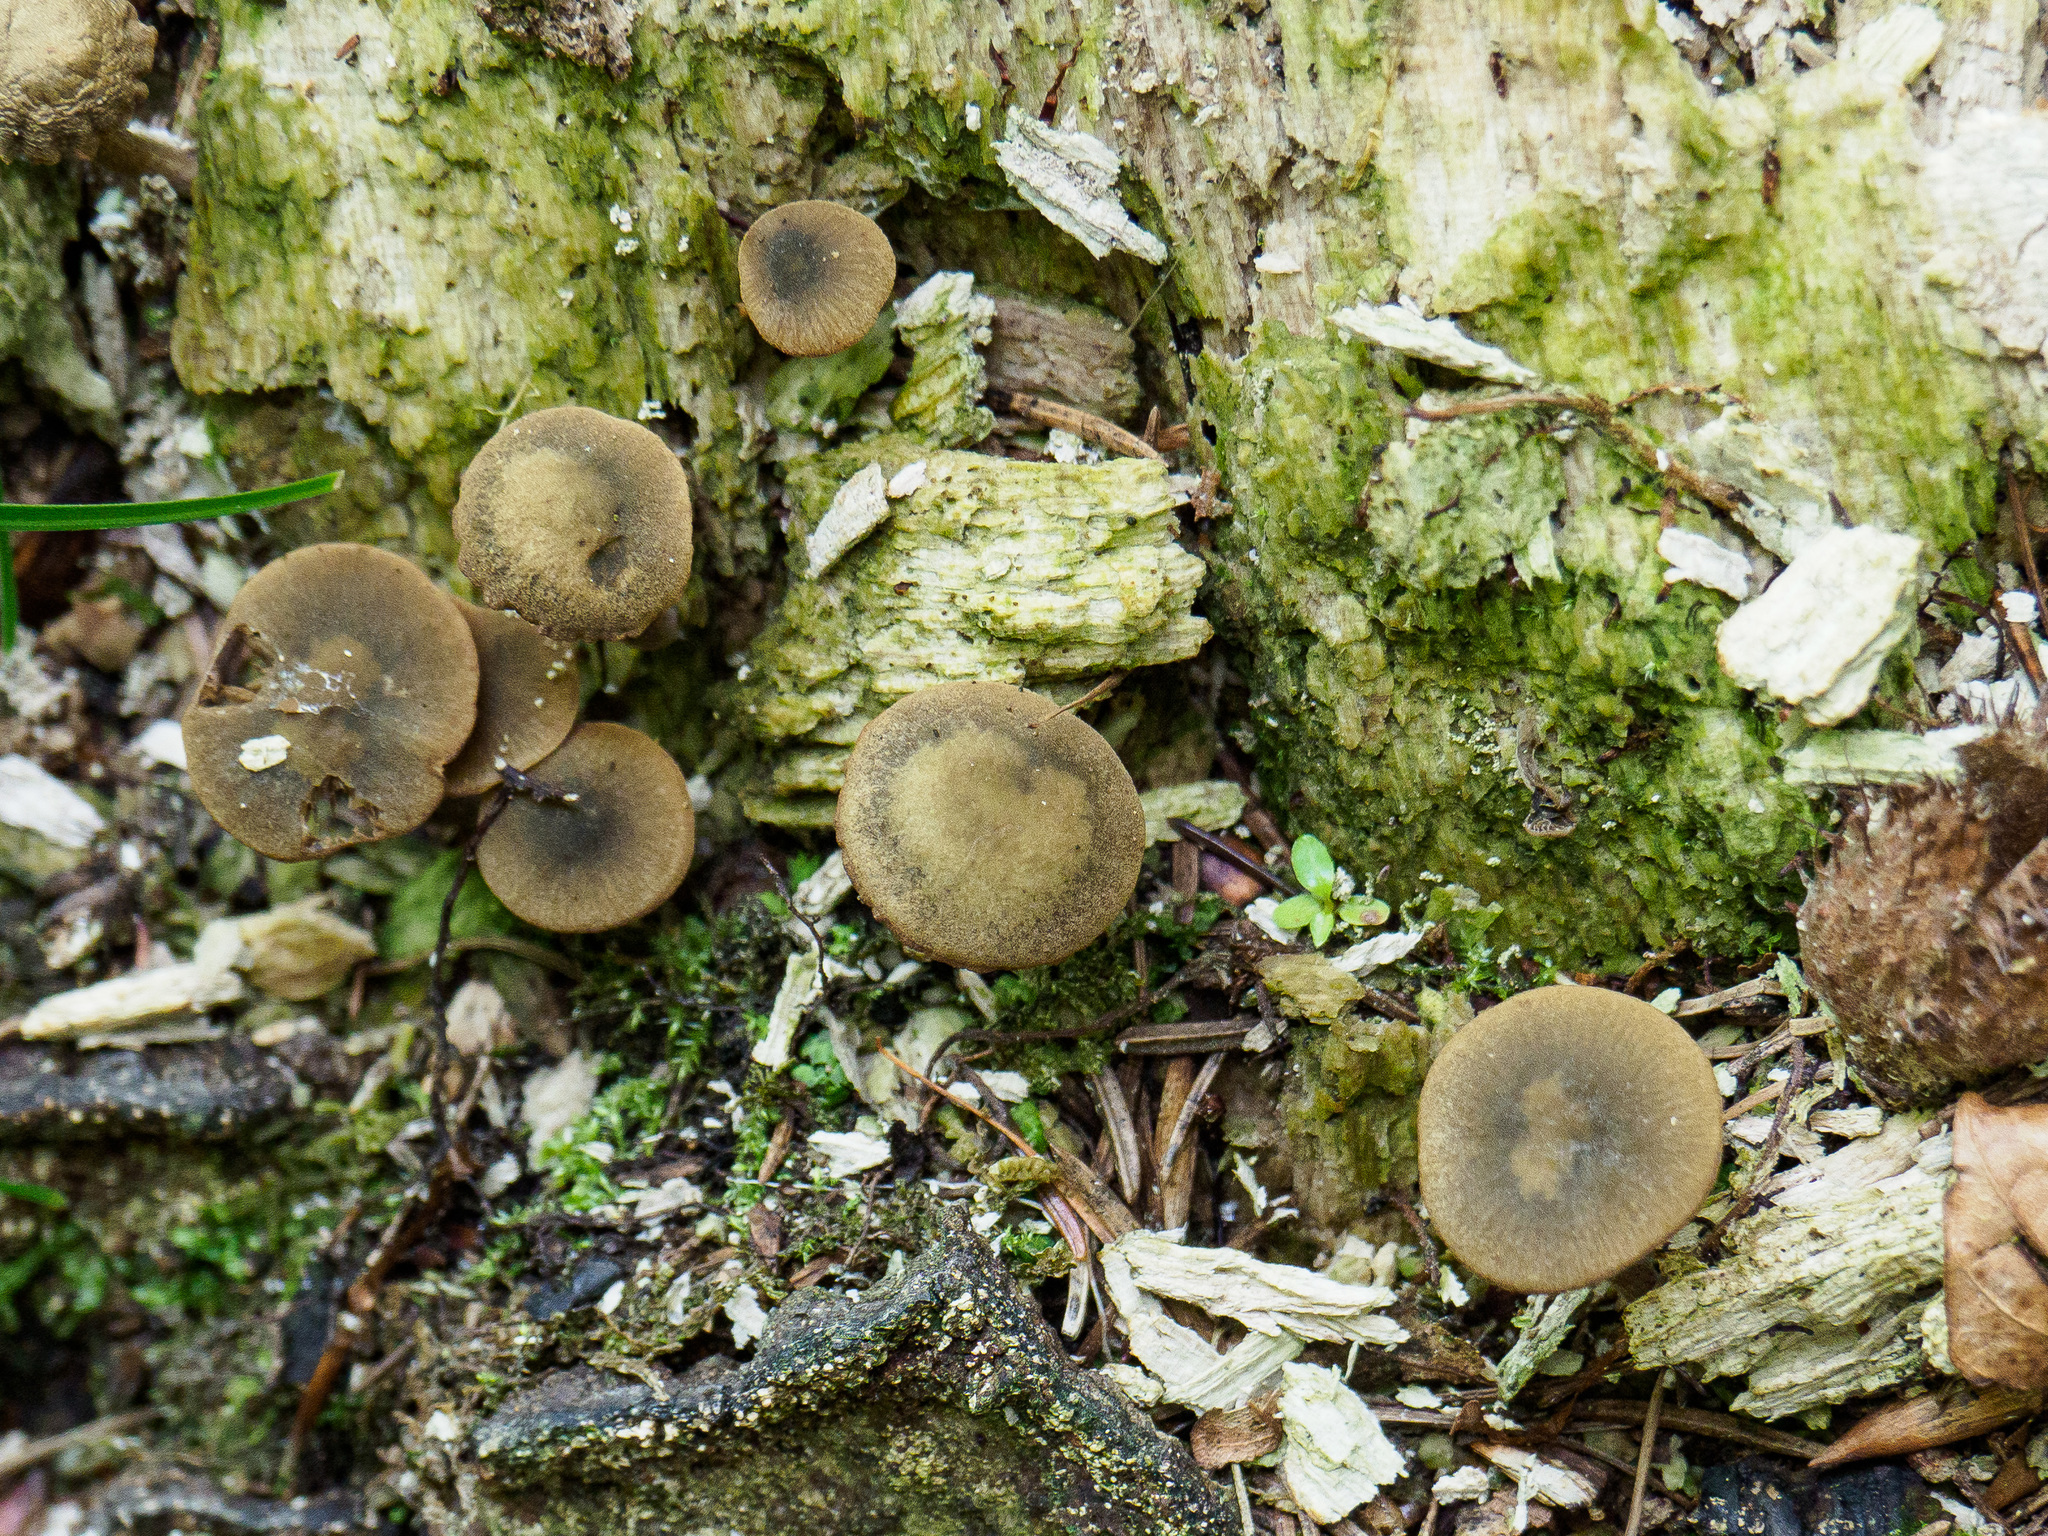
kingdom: Fungi
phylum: Basidiomycota
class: Agaricomycetes
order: Agaricales
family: Crepidotaceae
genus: Simocybe
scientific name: Simocybe centunculus
